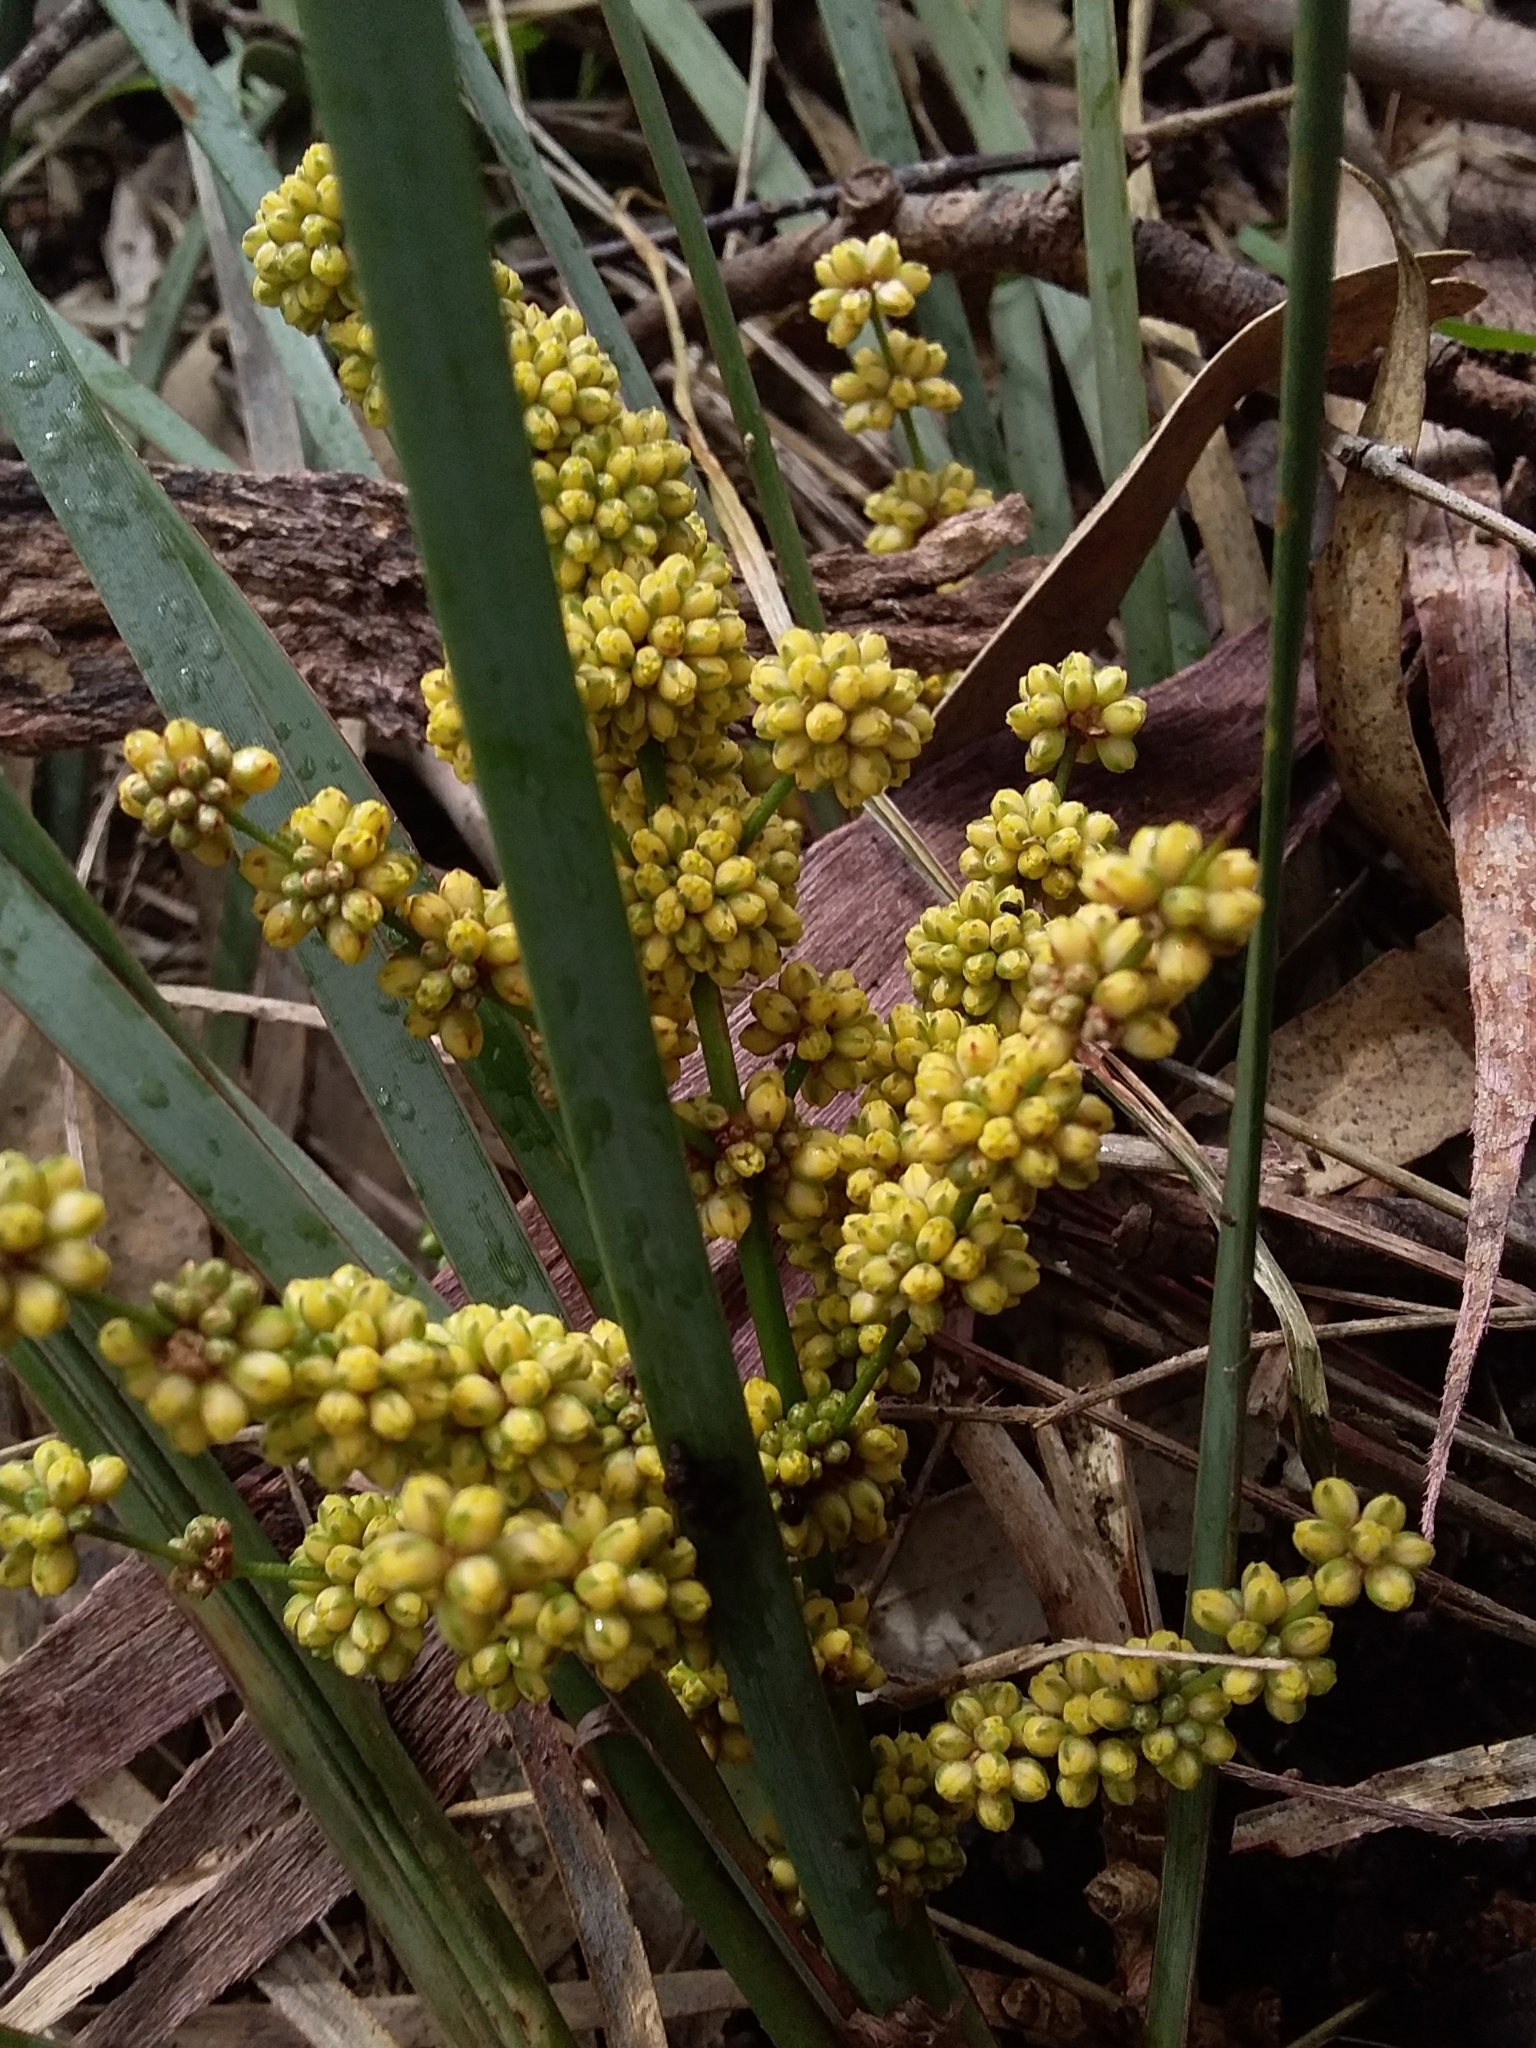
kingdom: Plantae
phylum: Tracheophyta
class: Liliopsida
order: Asparagales
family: Asparagaceae
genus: Lomandra
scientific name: Lomandra multiflora
